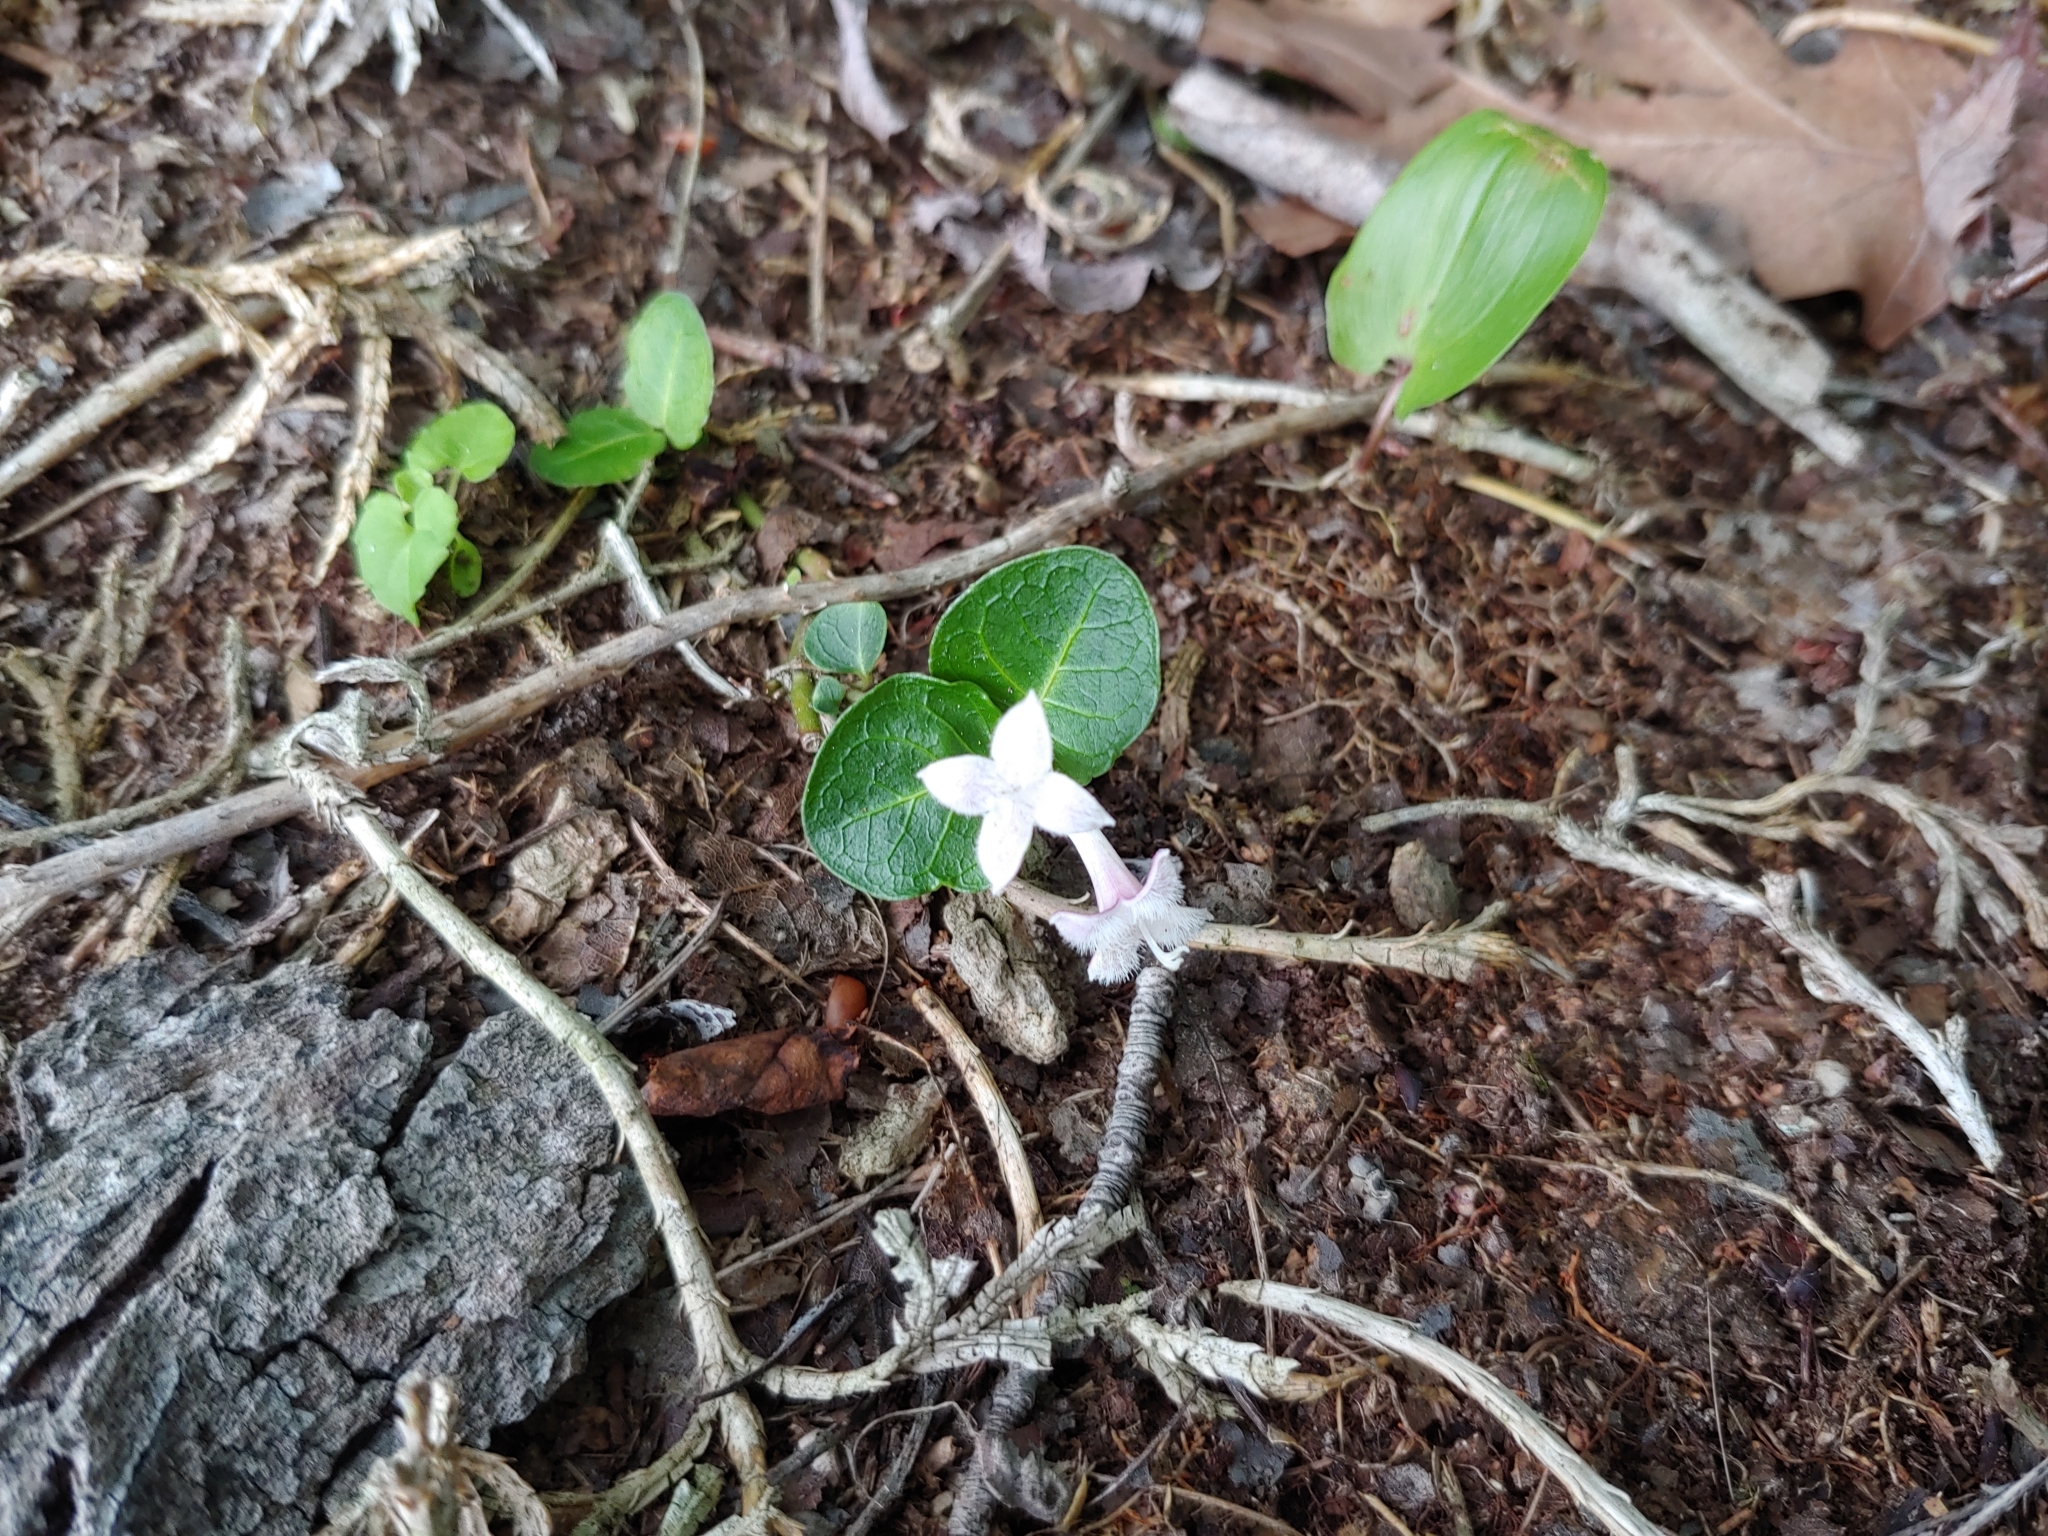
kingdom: Plantae
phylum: Tracheophyta
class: Magnoliopsida
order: Gentianales
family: Rubiaceae
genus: Mitchella
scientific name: Mitchella repens
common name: Partridge-berry
